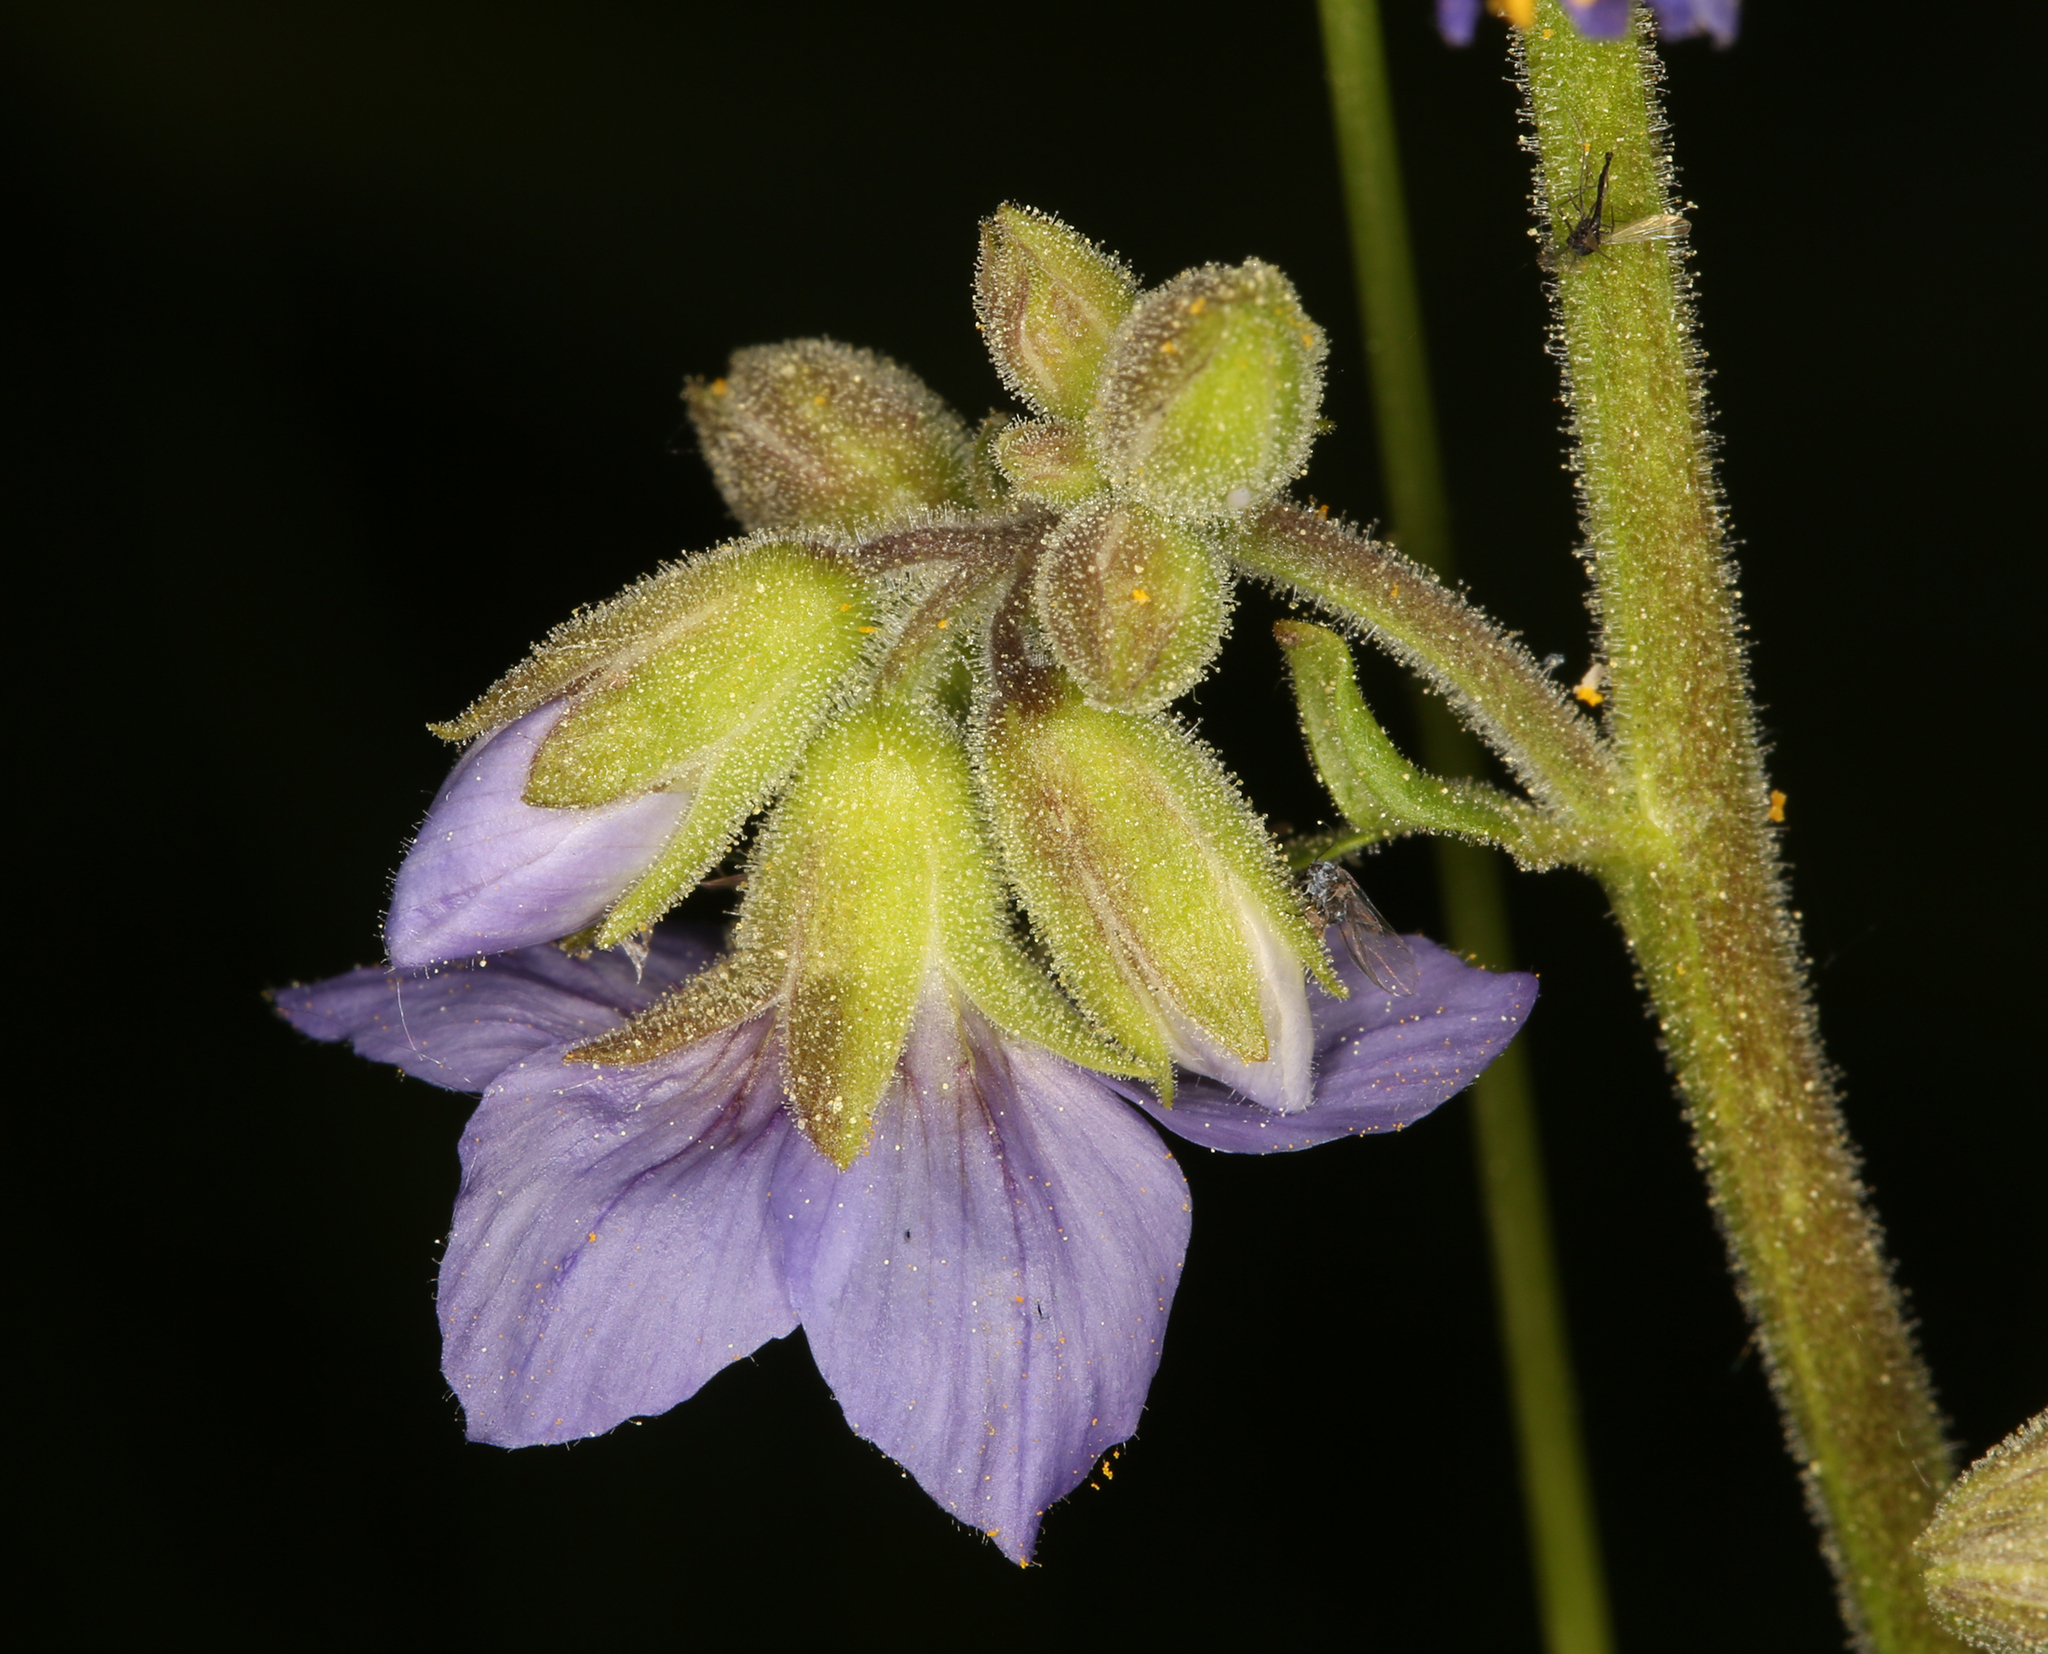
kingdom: Plantae
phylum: Tracheophyta
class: Magnoliopsida
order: Ericales
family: Polemoniaceae
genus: Polemonium
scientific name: Polemonium occidentale
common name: Western jacob's-ladder
